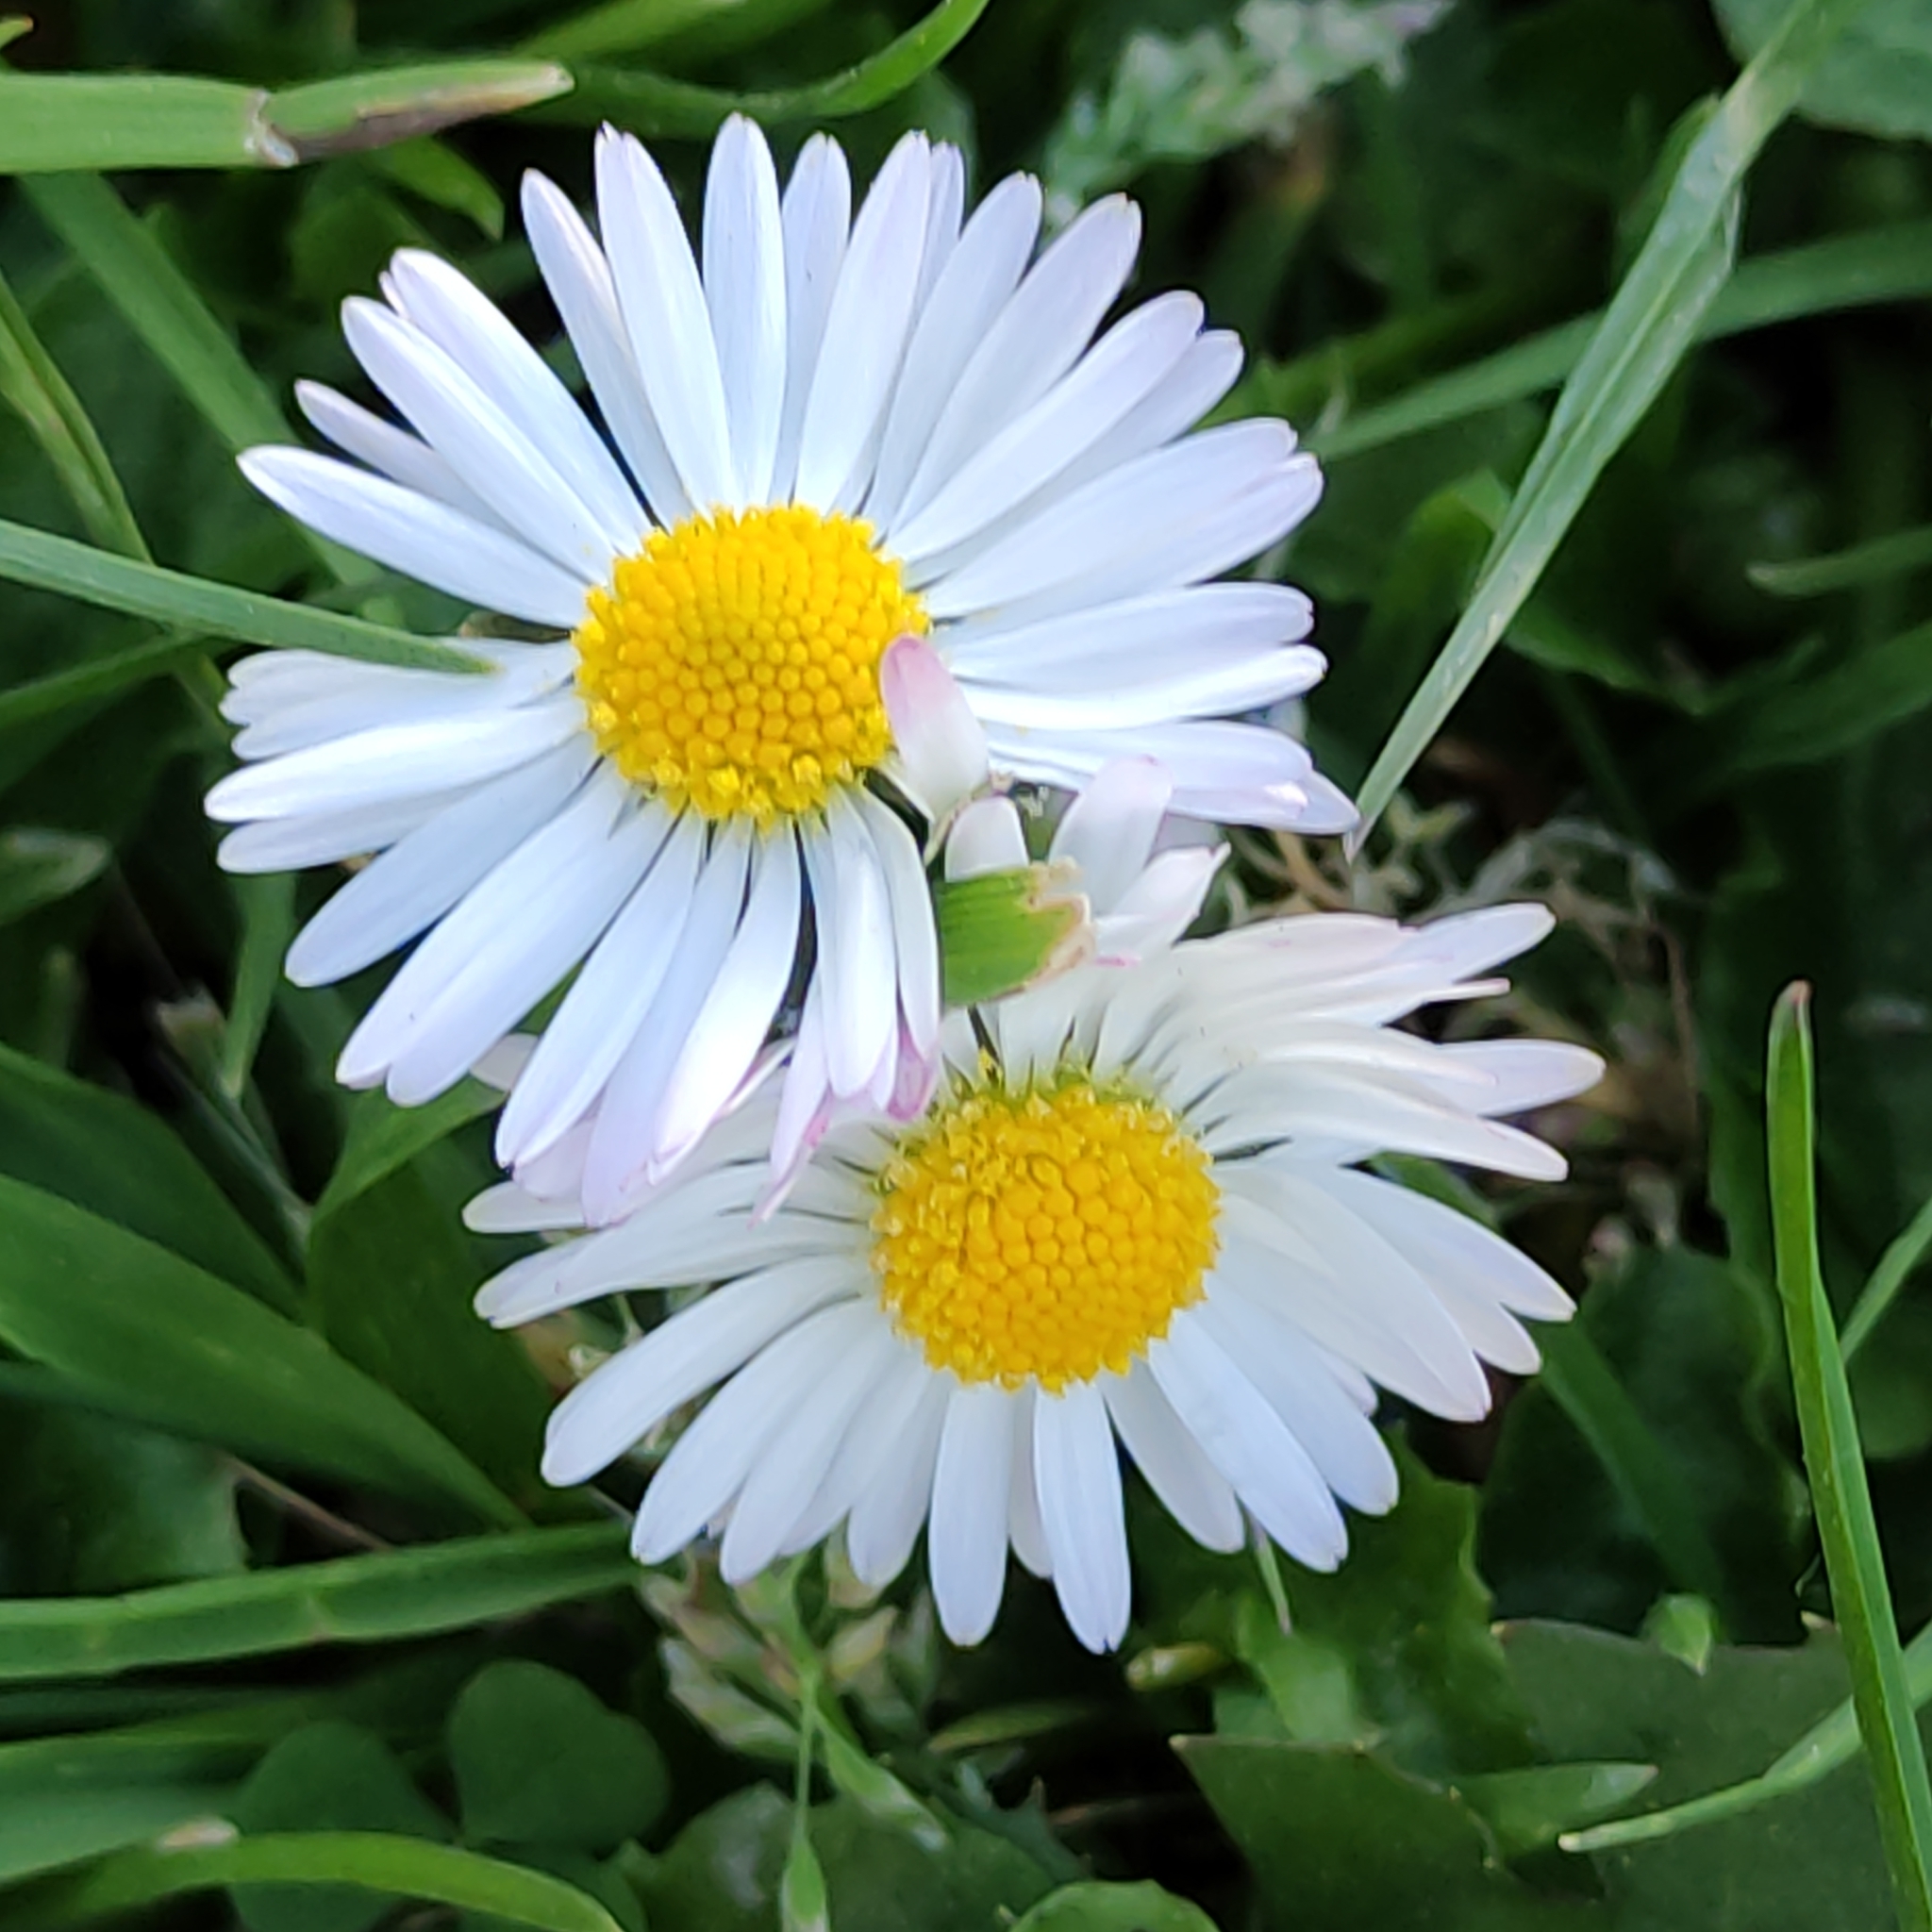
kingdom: Plantae
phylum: Tracheophyta
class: Magnoliopsida
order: Asterales
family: Asteraceae
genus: Bellis
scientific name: Bellis perennis
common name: Lawndaisy
